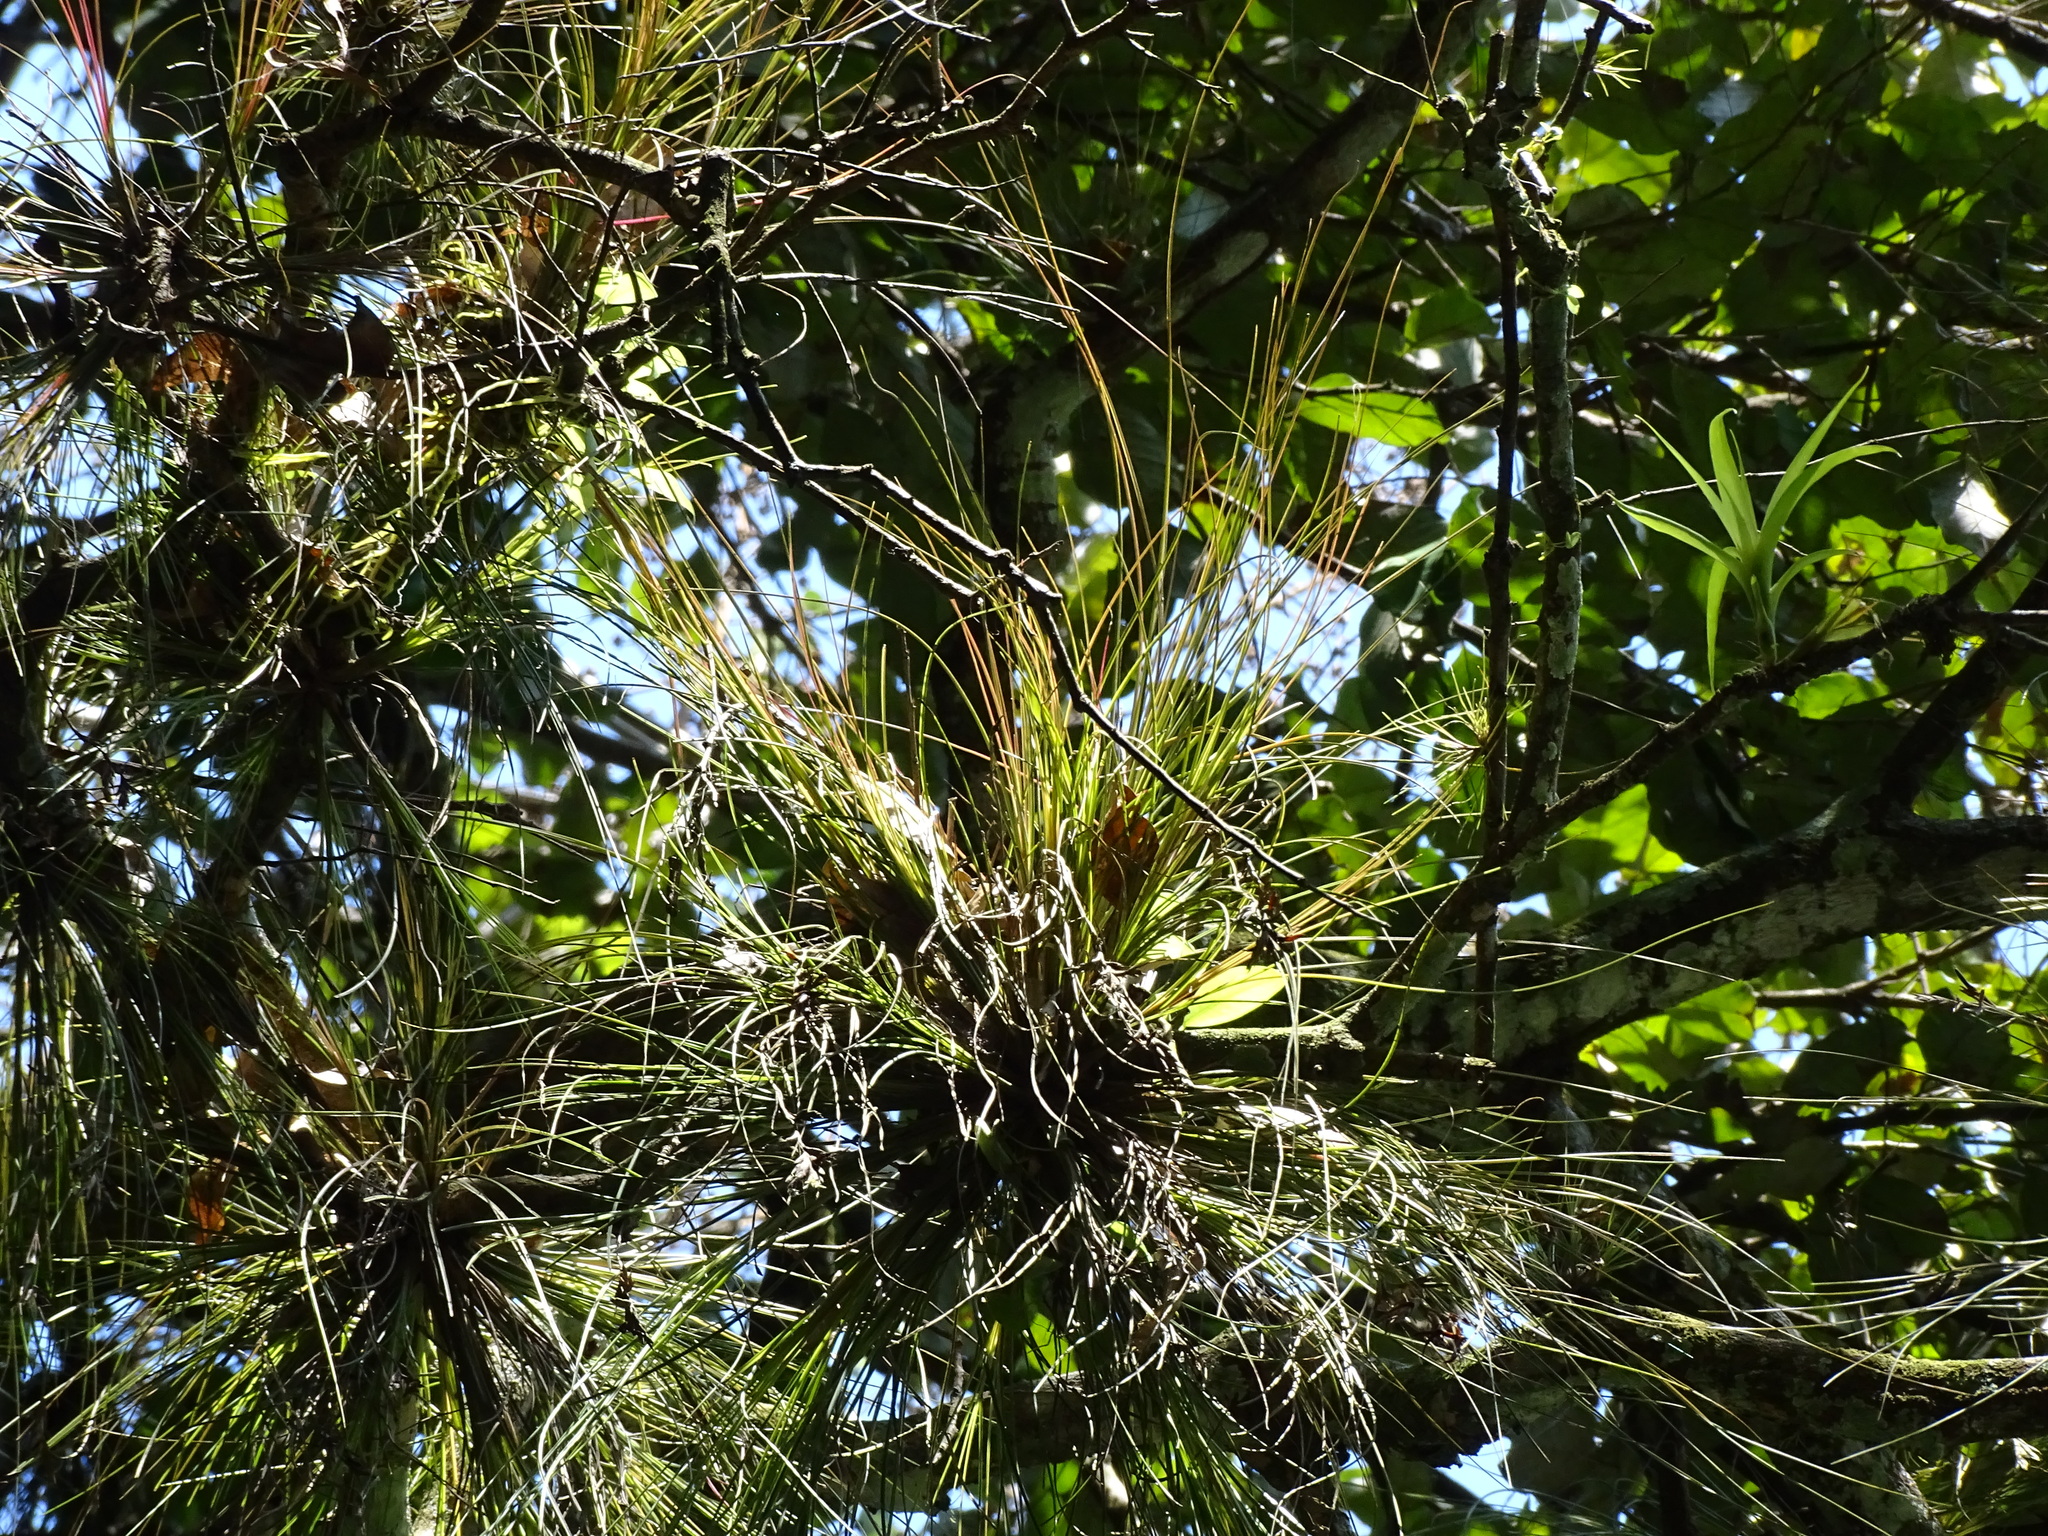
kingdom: Plantae
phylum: Tracheophyta
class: Liliopsida
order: Poales
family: Bromeliaceae
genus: Tillandsia
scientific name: Tillandsia eistetteri
